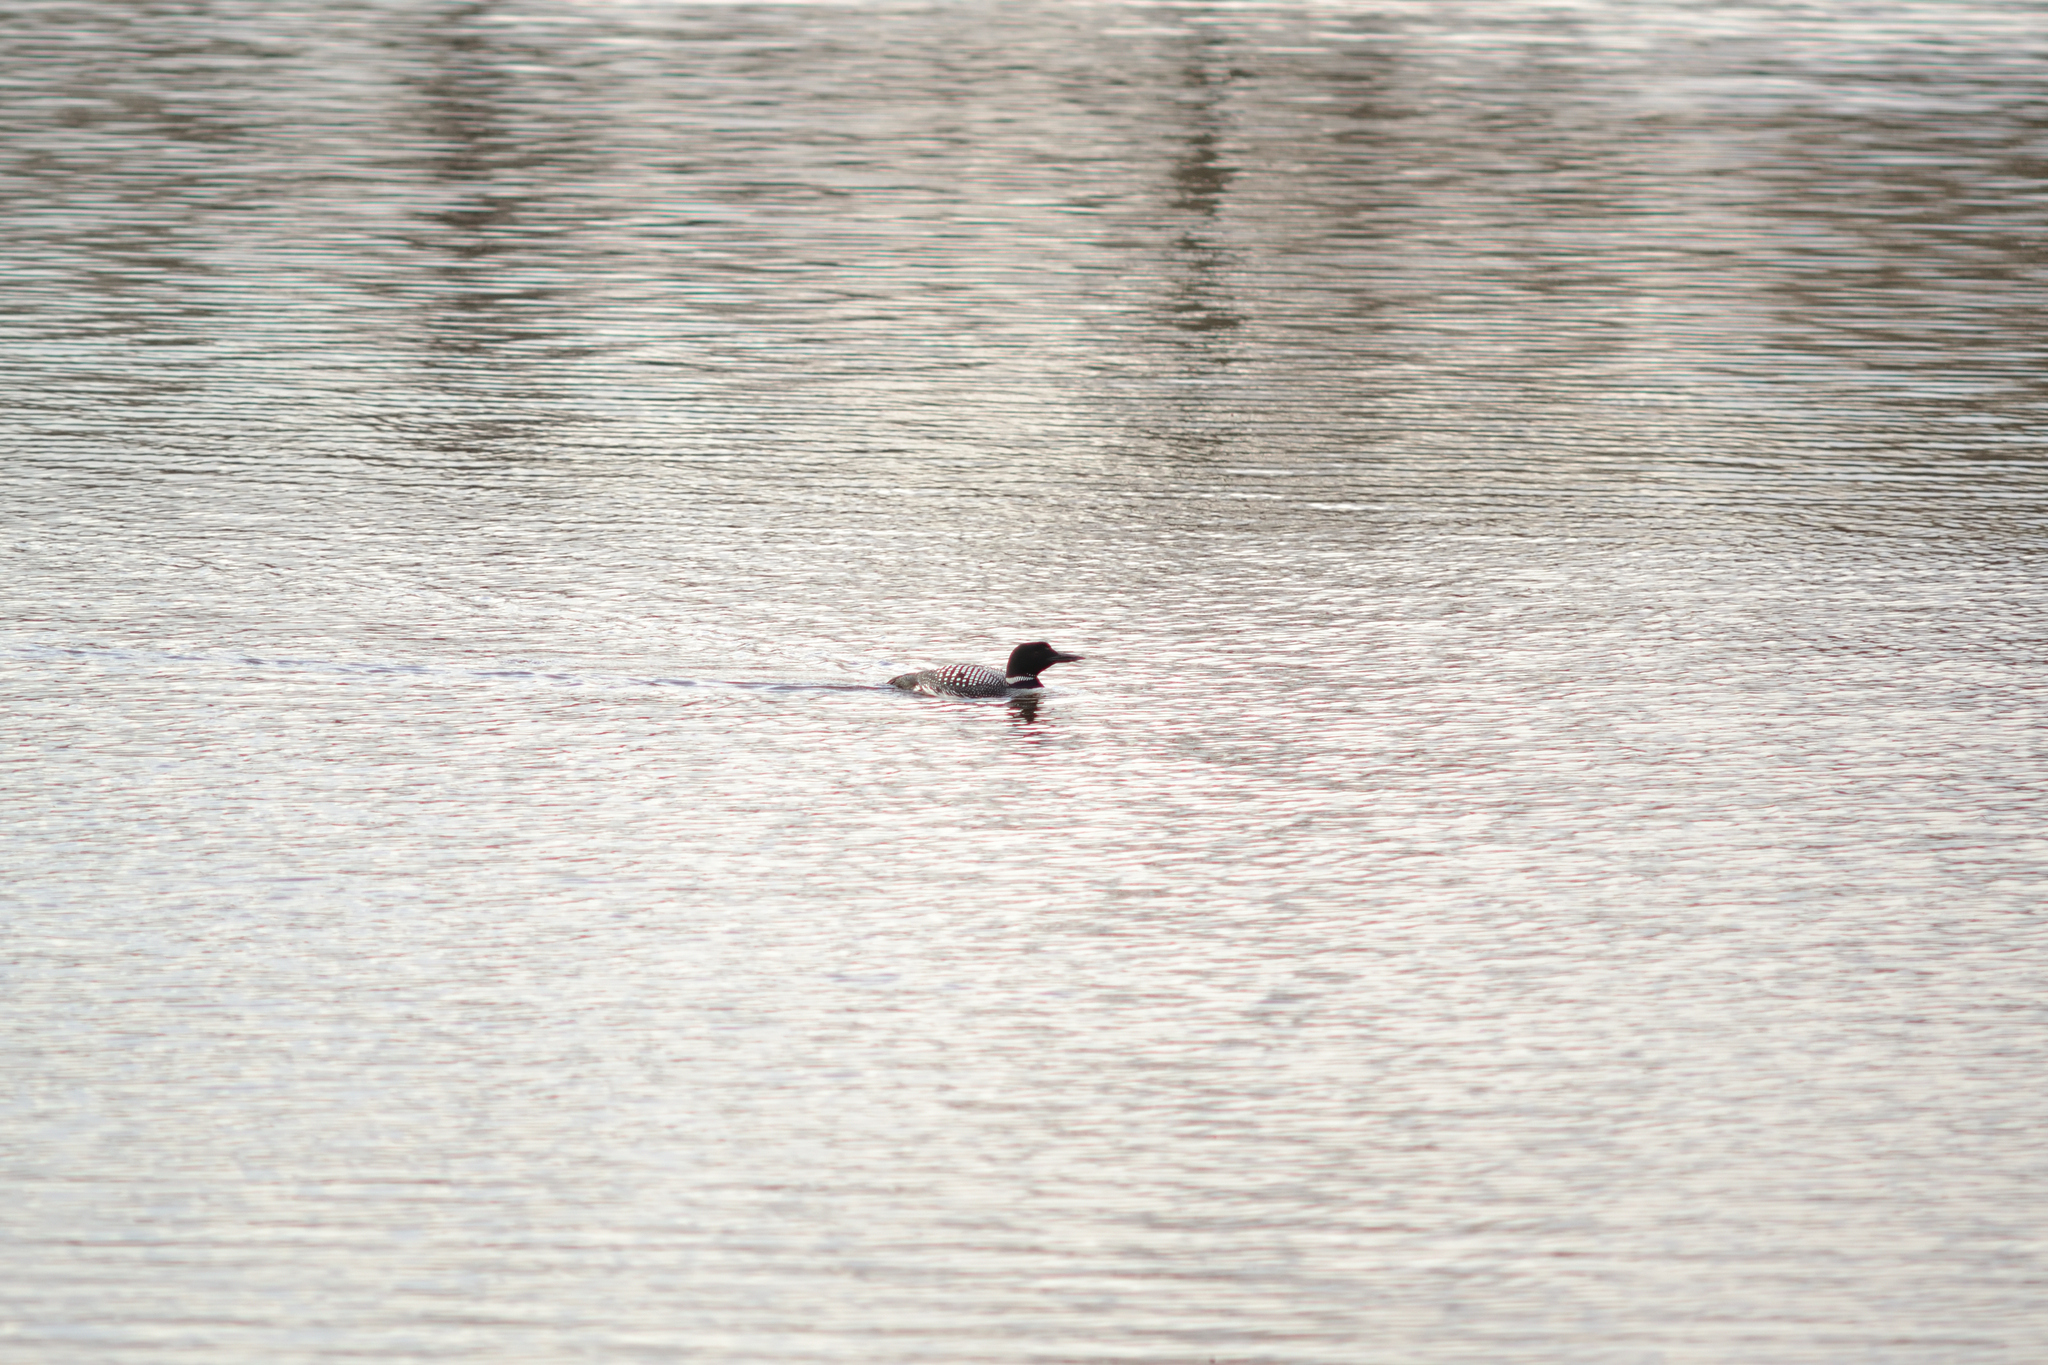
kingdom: Animalia
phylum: Chordata
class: Aves
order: Gaviiformes
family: Gaviidae
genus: Gavia
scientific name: Gavia immer
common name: Common loon
